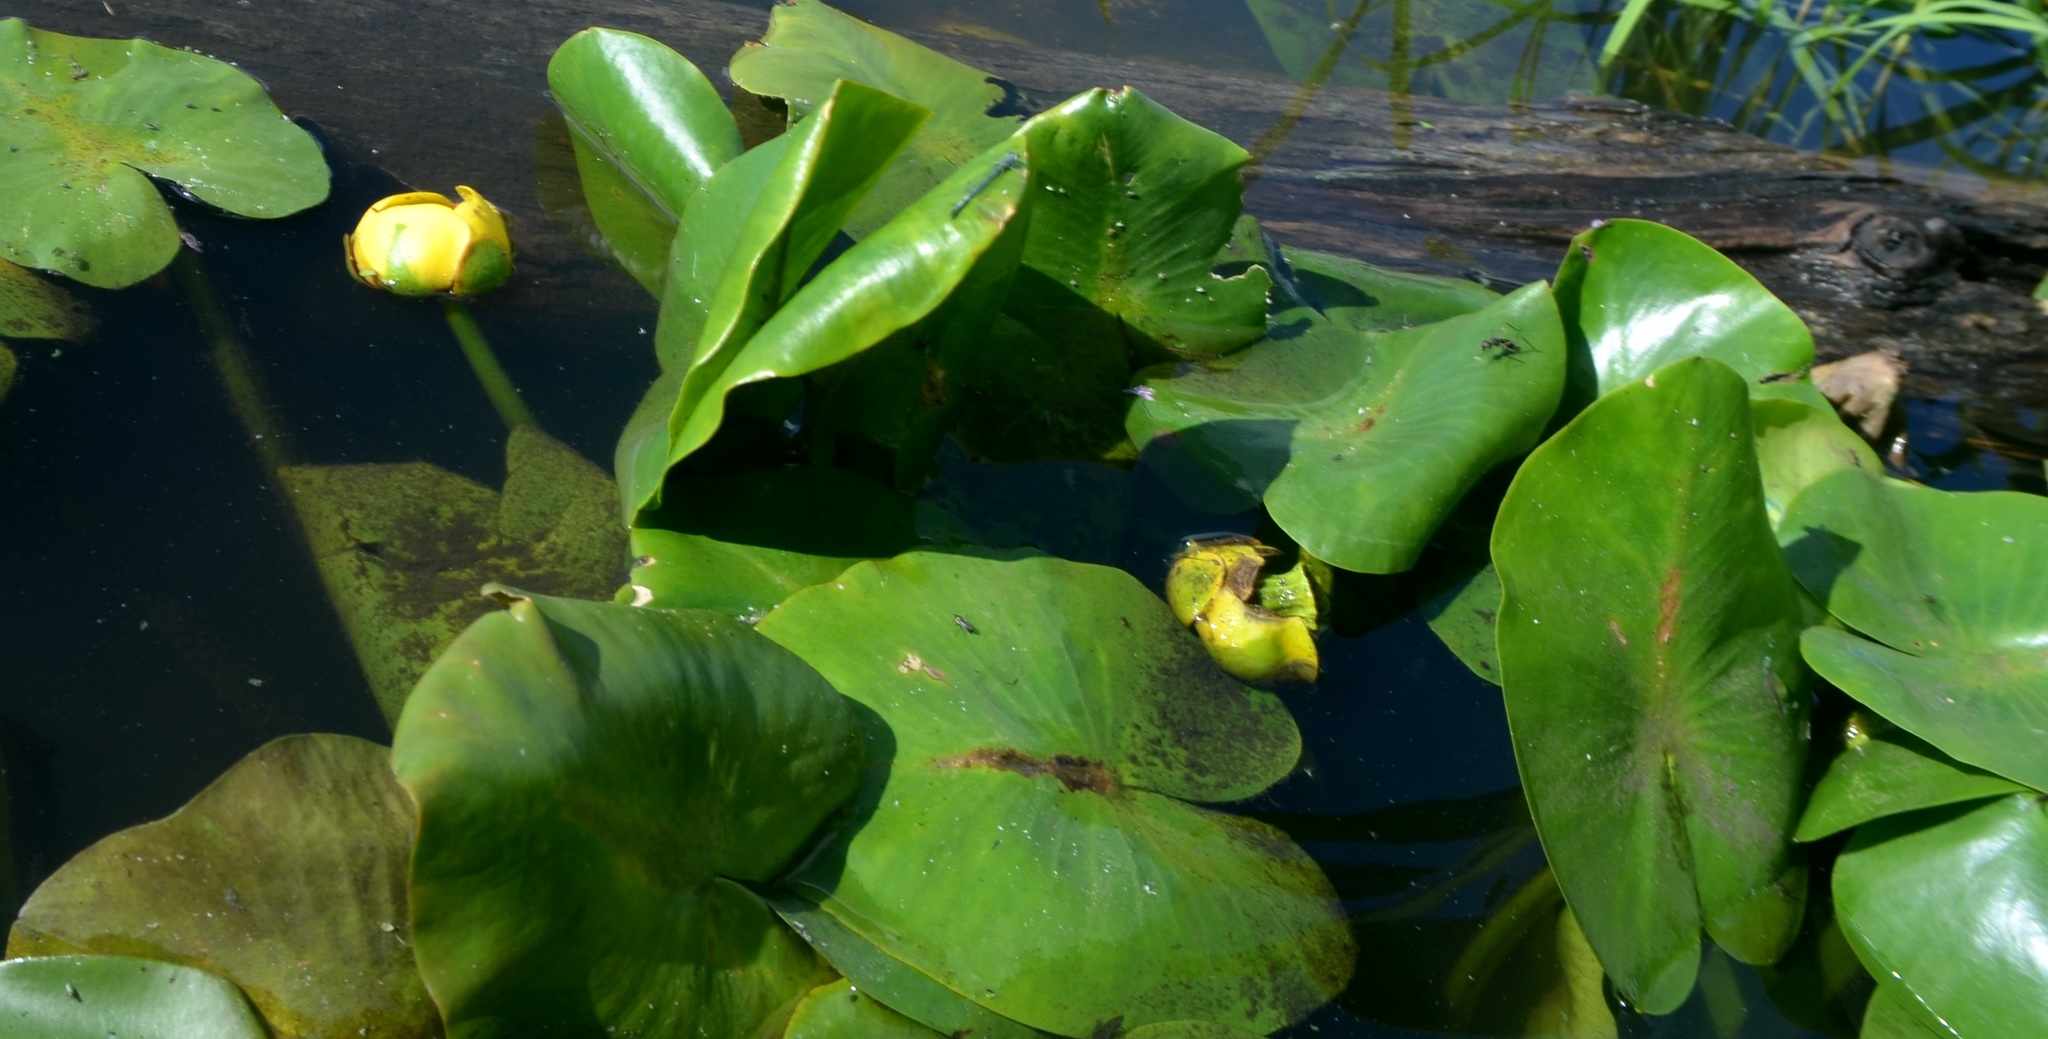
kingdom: Plantae
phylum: Tracheophyta
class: Magnoliopsida
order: Nymphaeales
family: Nymphaeaceae
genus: Nuphar
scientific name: Nuphar advena
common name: Spatter-dock
